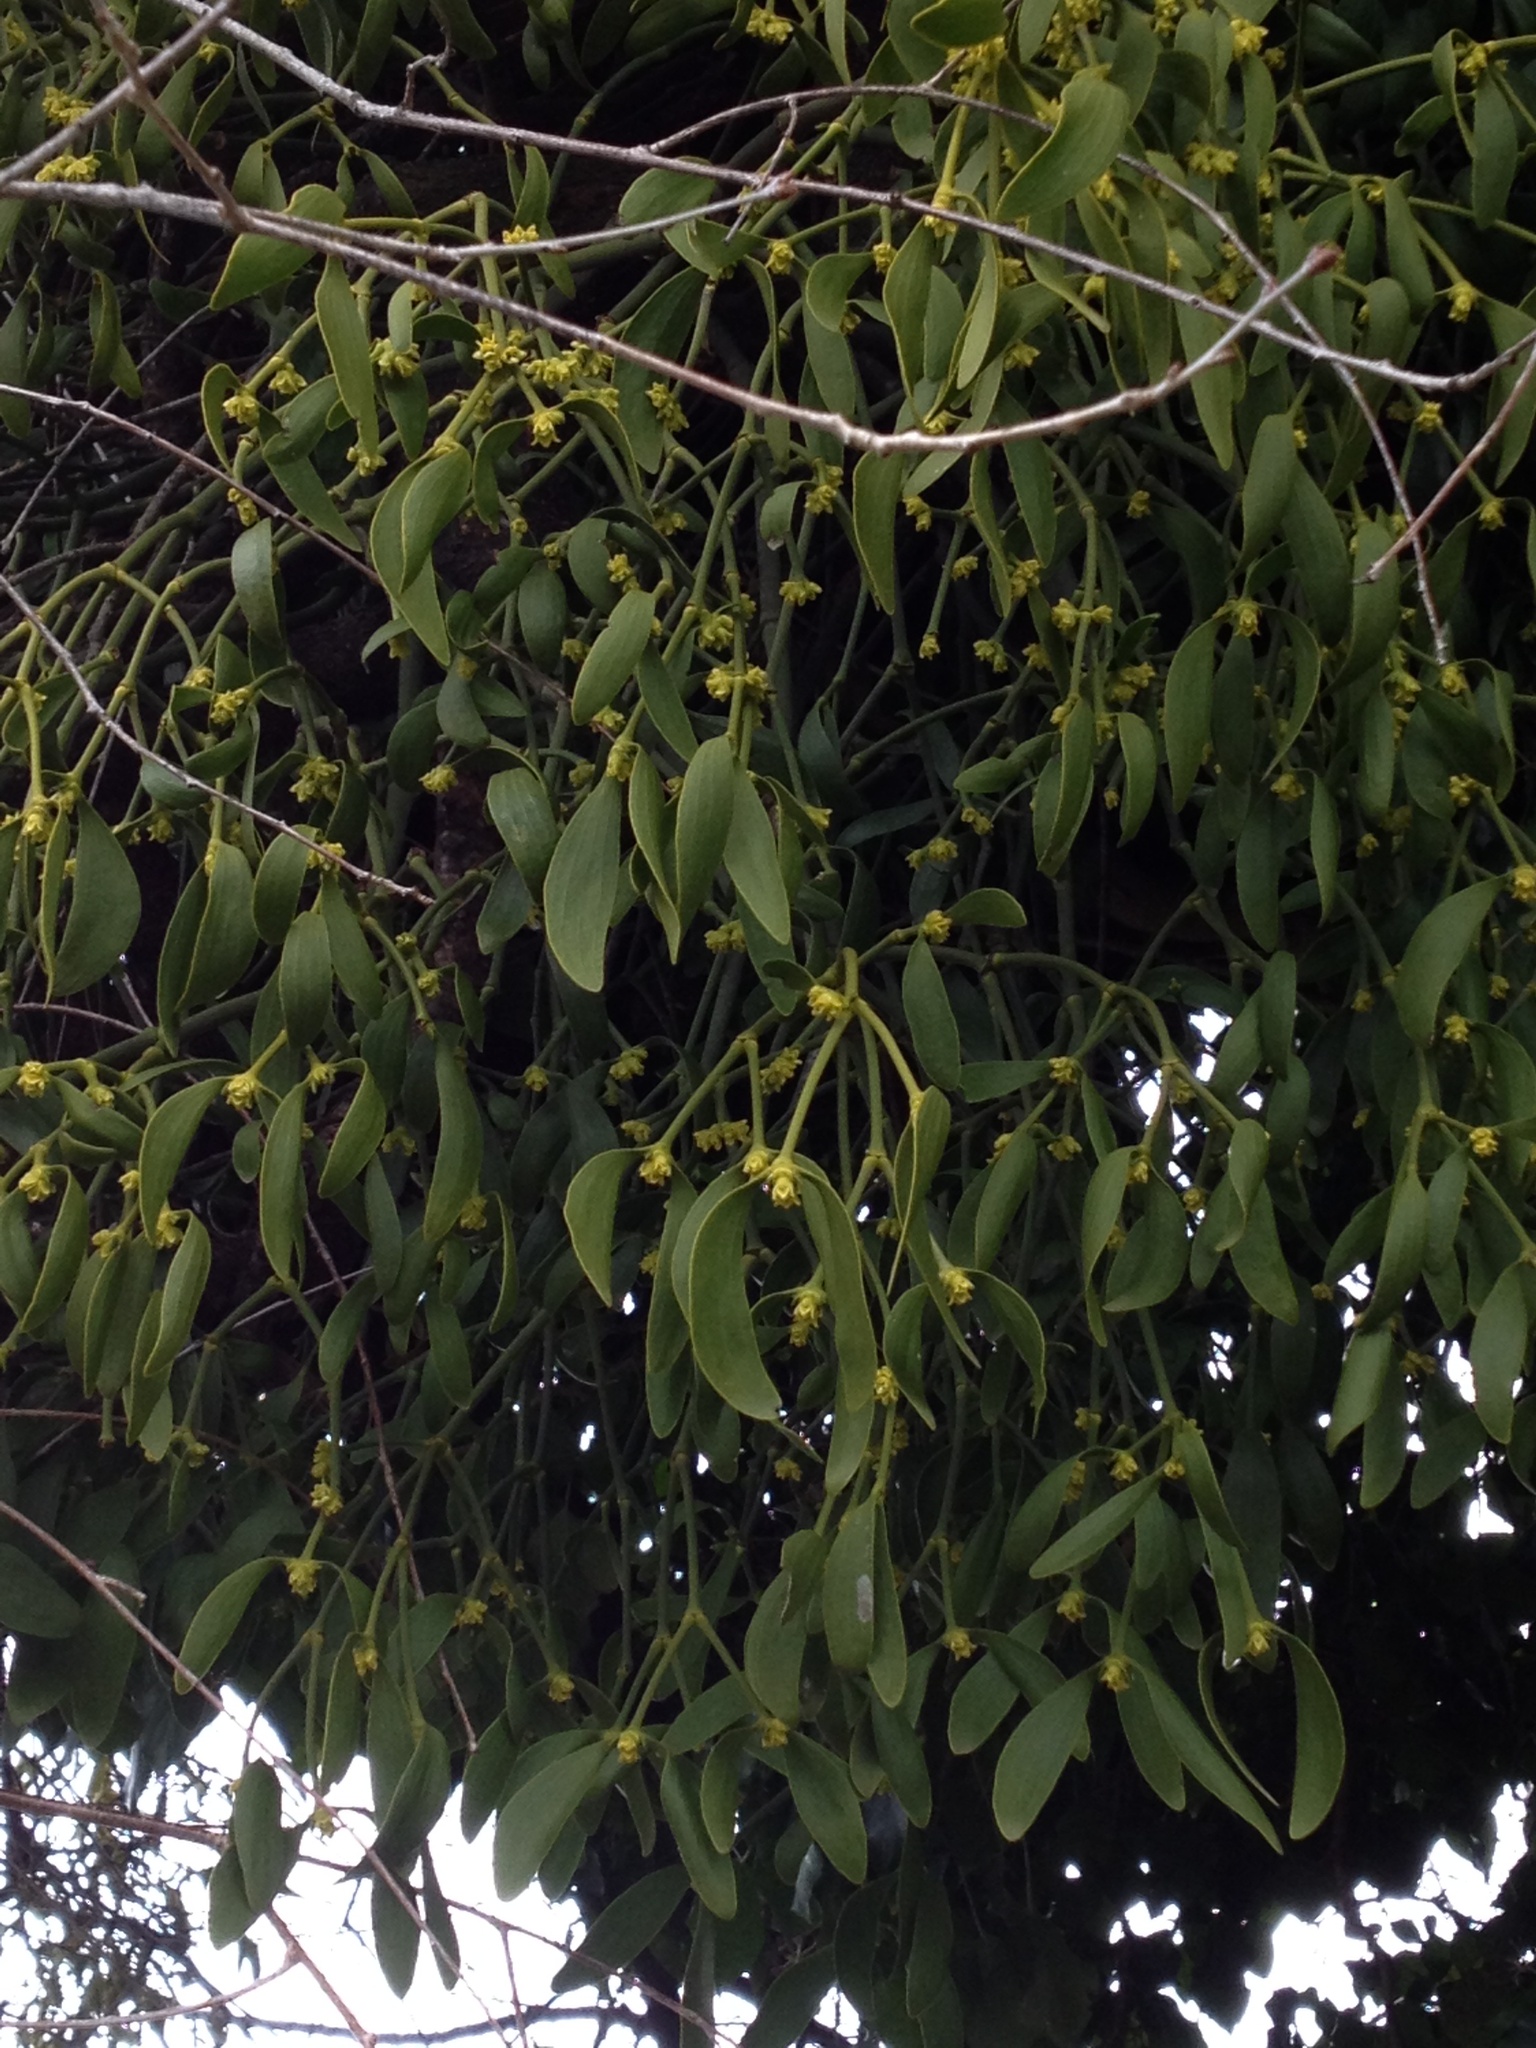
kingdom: Plantae
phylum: Tracheophyta
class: Magnoliopsida
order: Santalales
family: Viscaceae
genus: Viscum
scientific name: Viscum album
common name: Mistletoe
